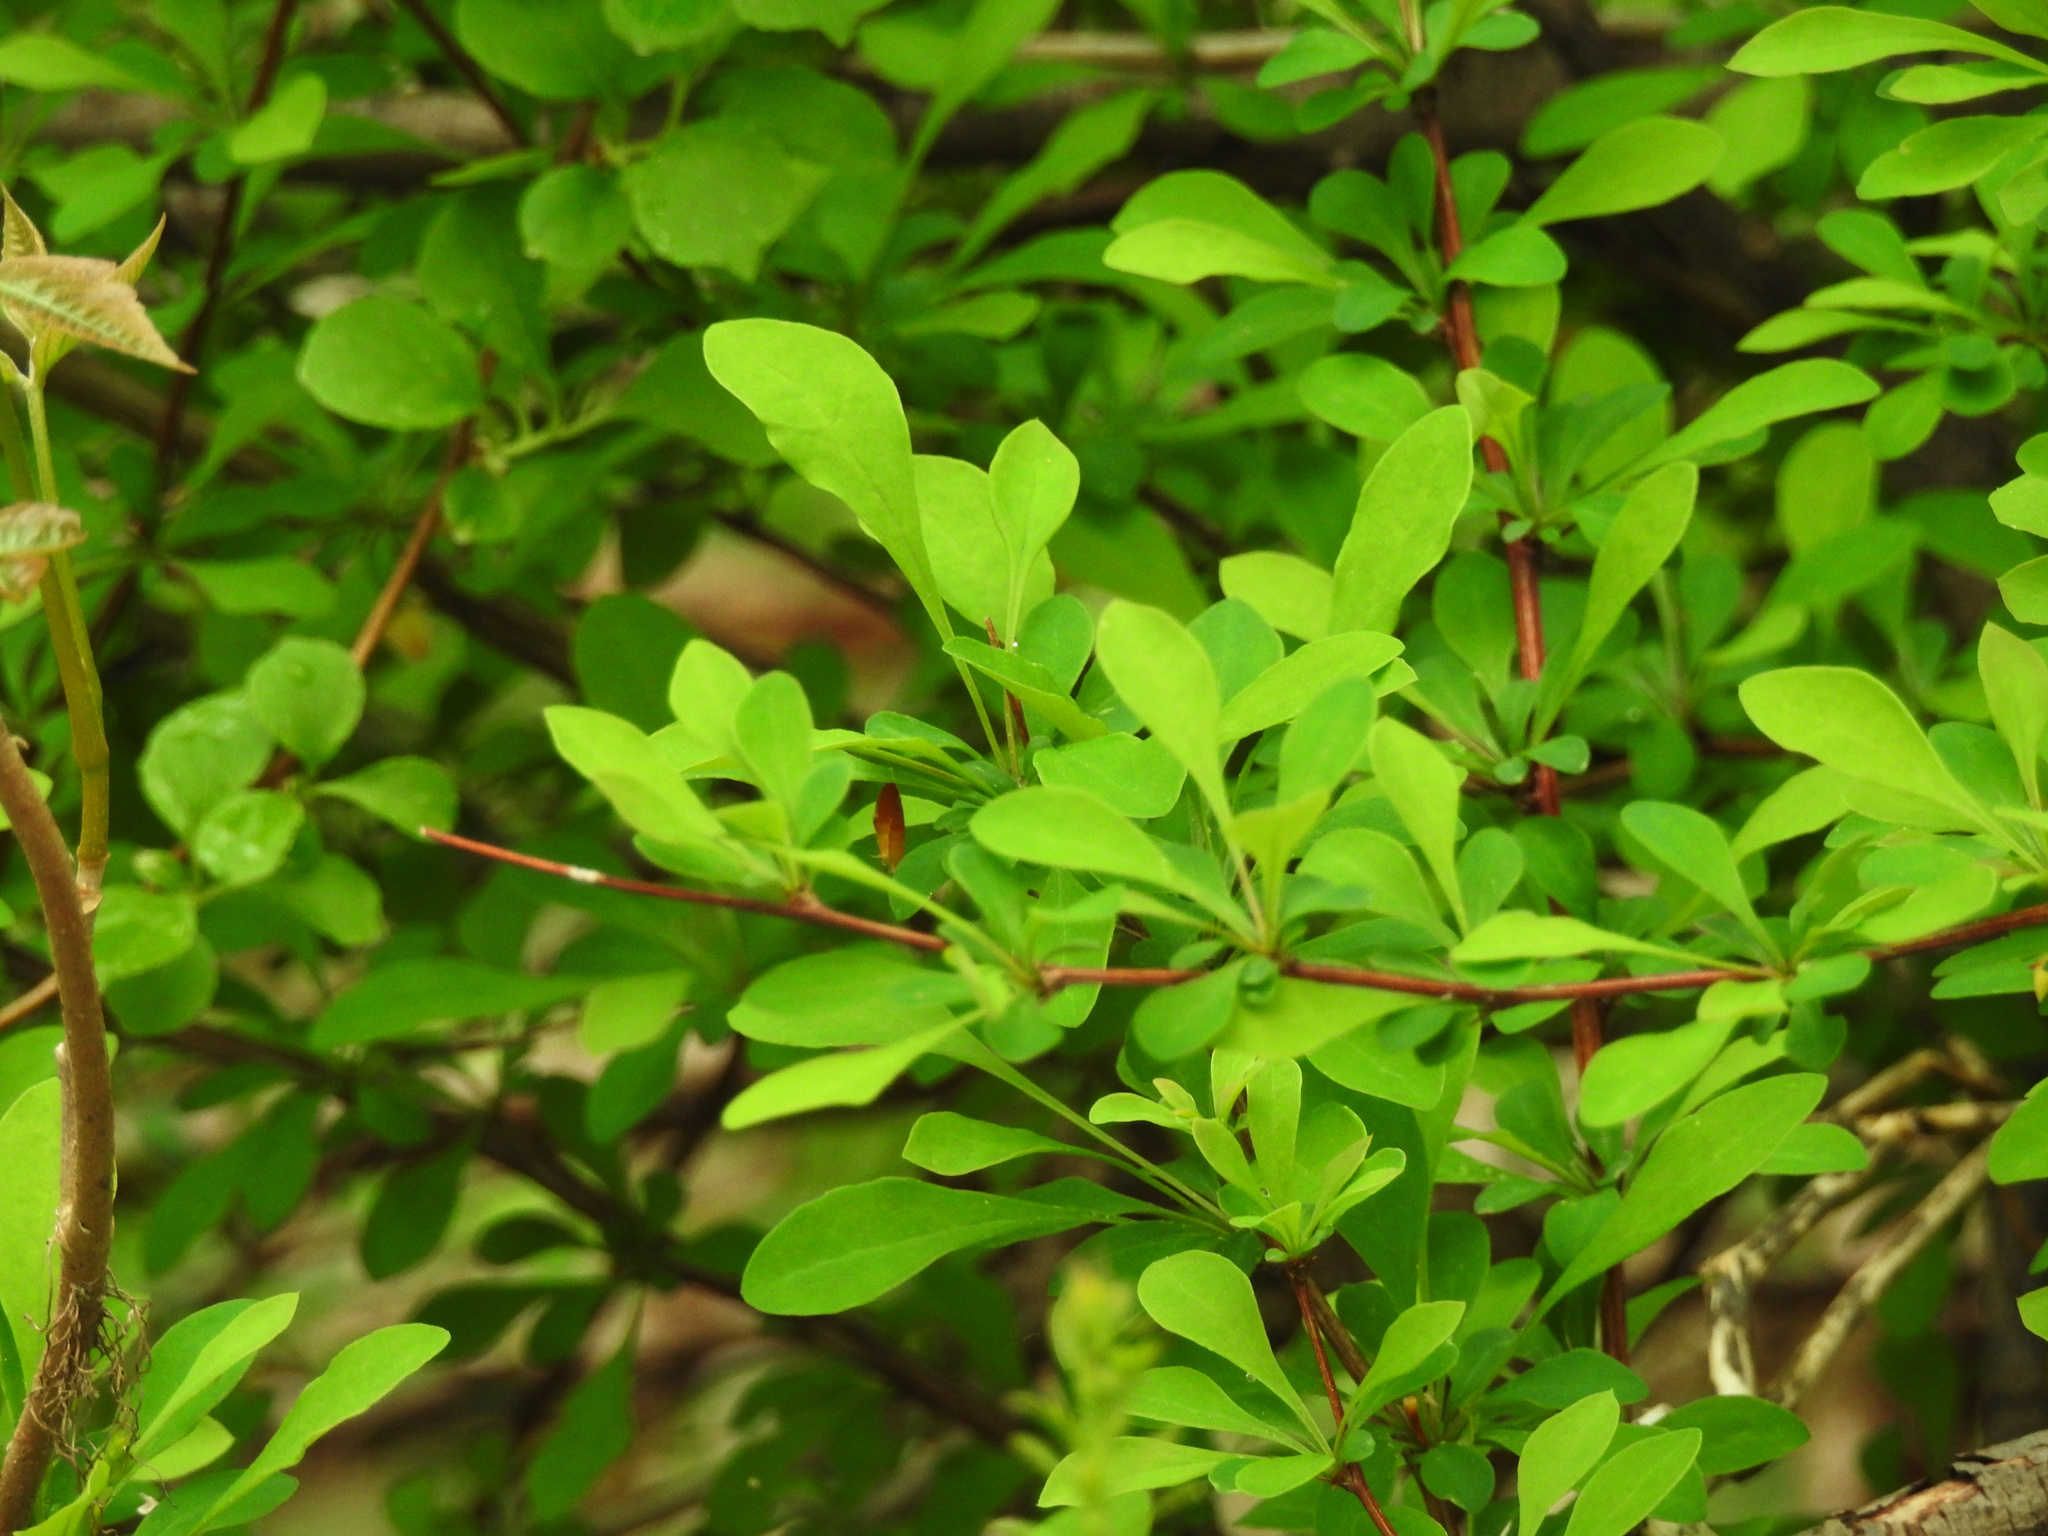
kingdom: Plantae
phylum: Tracheophyta
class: Magnoliopsida
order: Ranunculales
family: Berberidaceae
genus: Berberis
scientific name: Berberis thunbergii
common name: Japanese barberry
